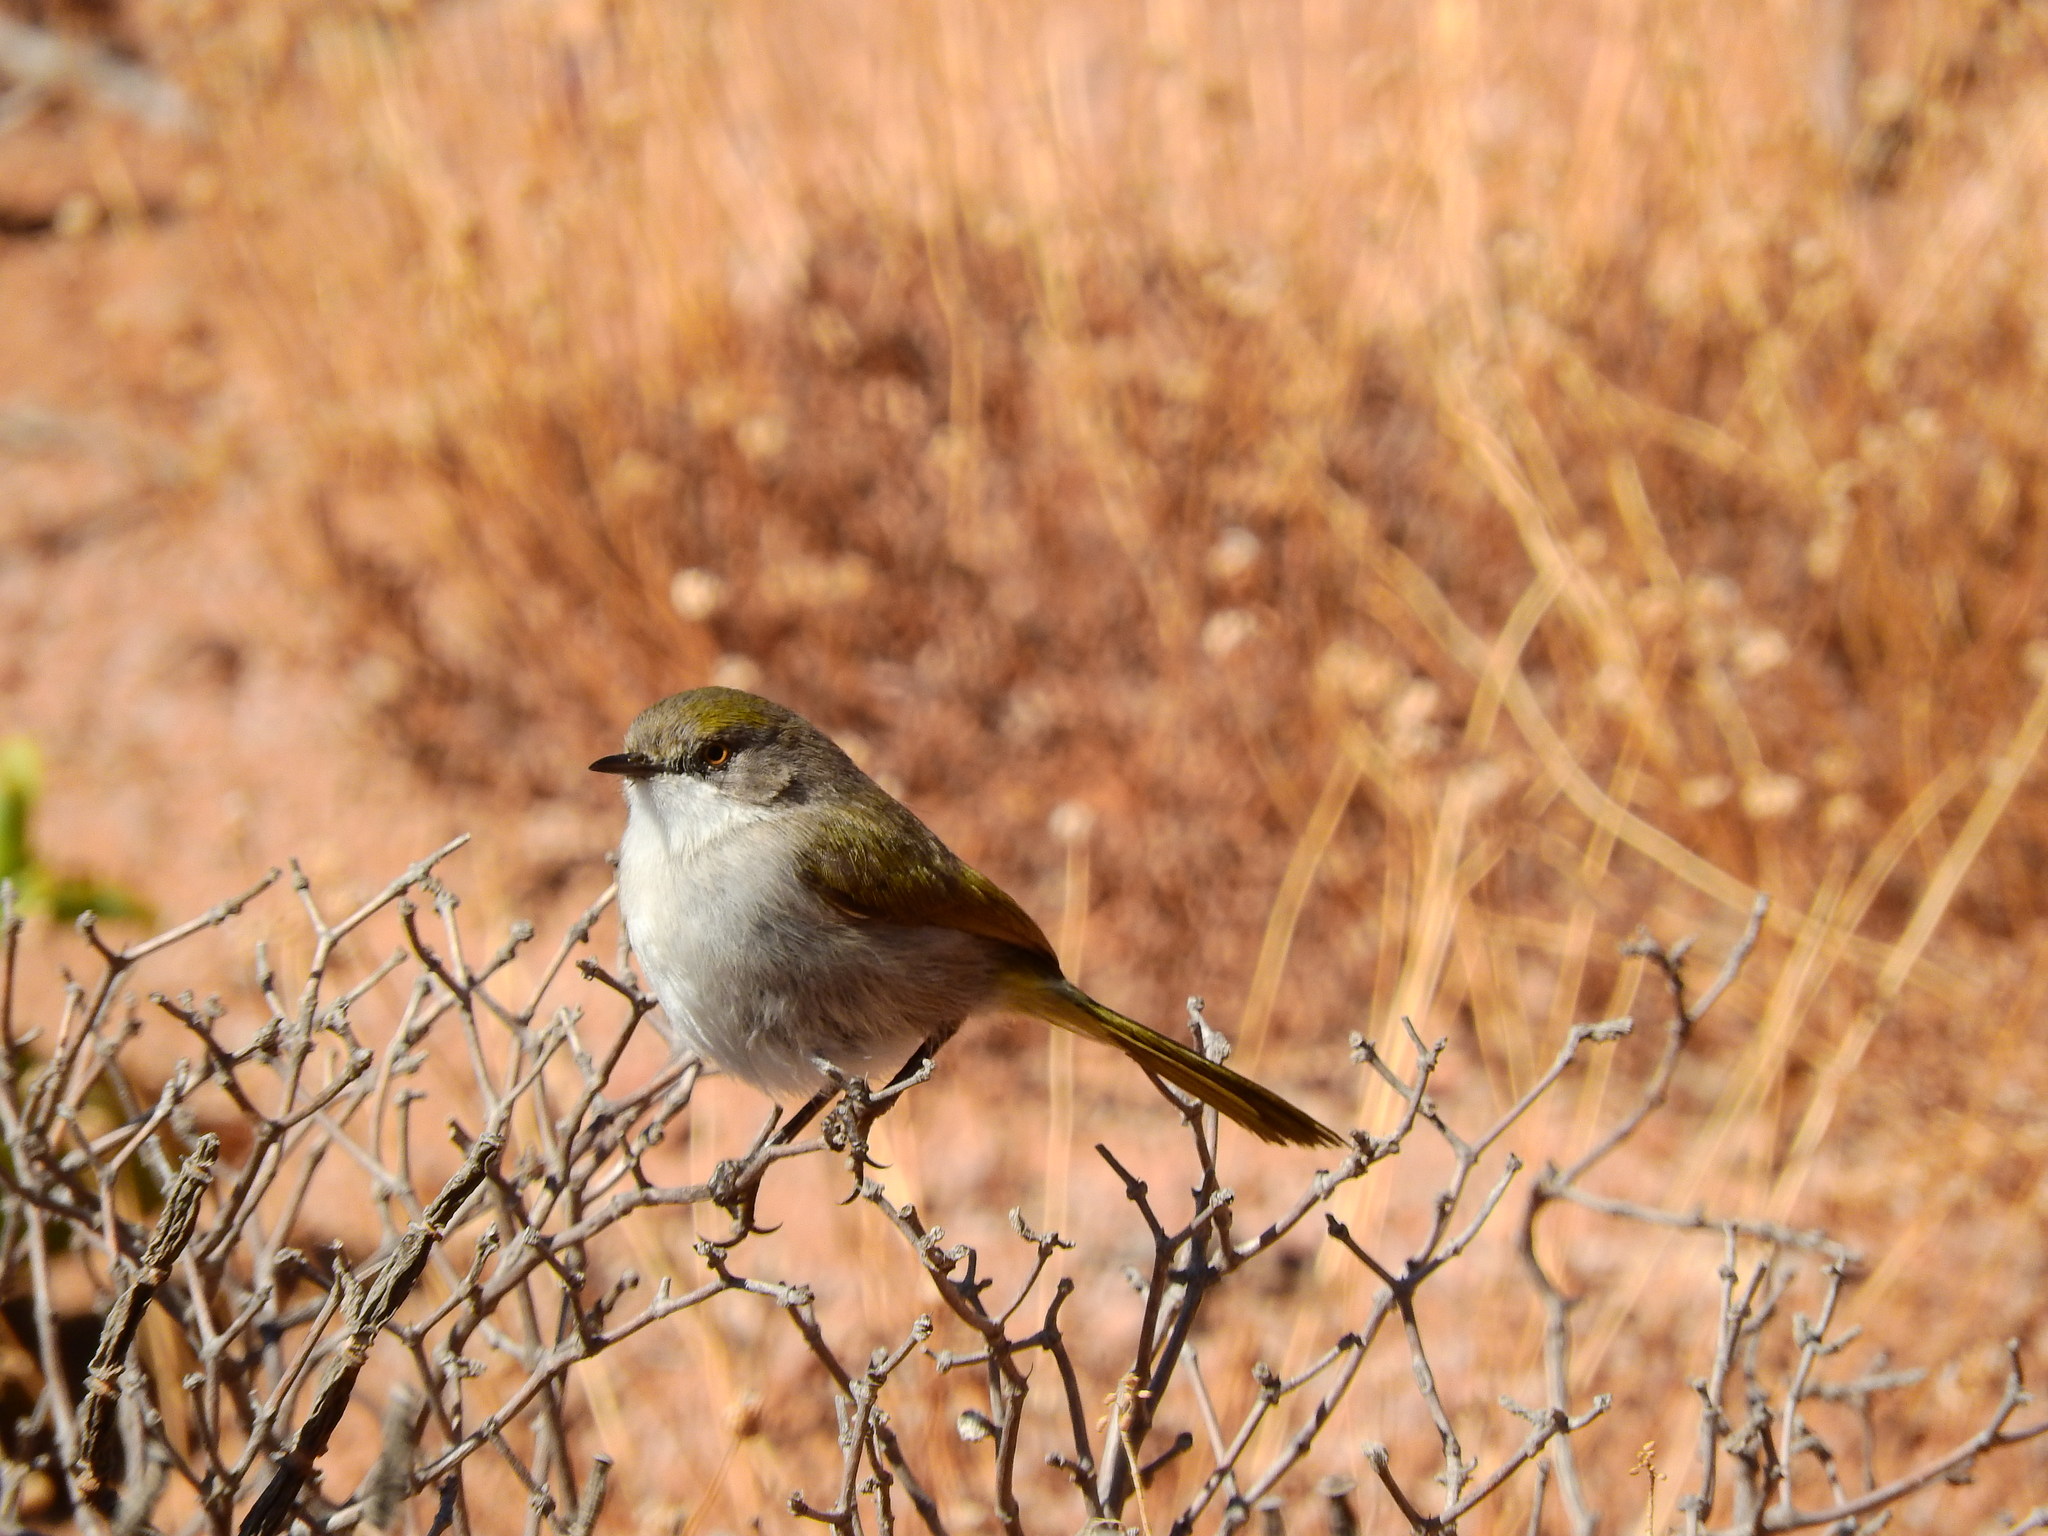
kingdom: Animalia
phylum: Chordata
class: Aves
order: Passeriformes
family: Cisticolidae
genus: Eremomela
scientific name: Eremomela gregalis
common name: Karoo eremomela
